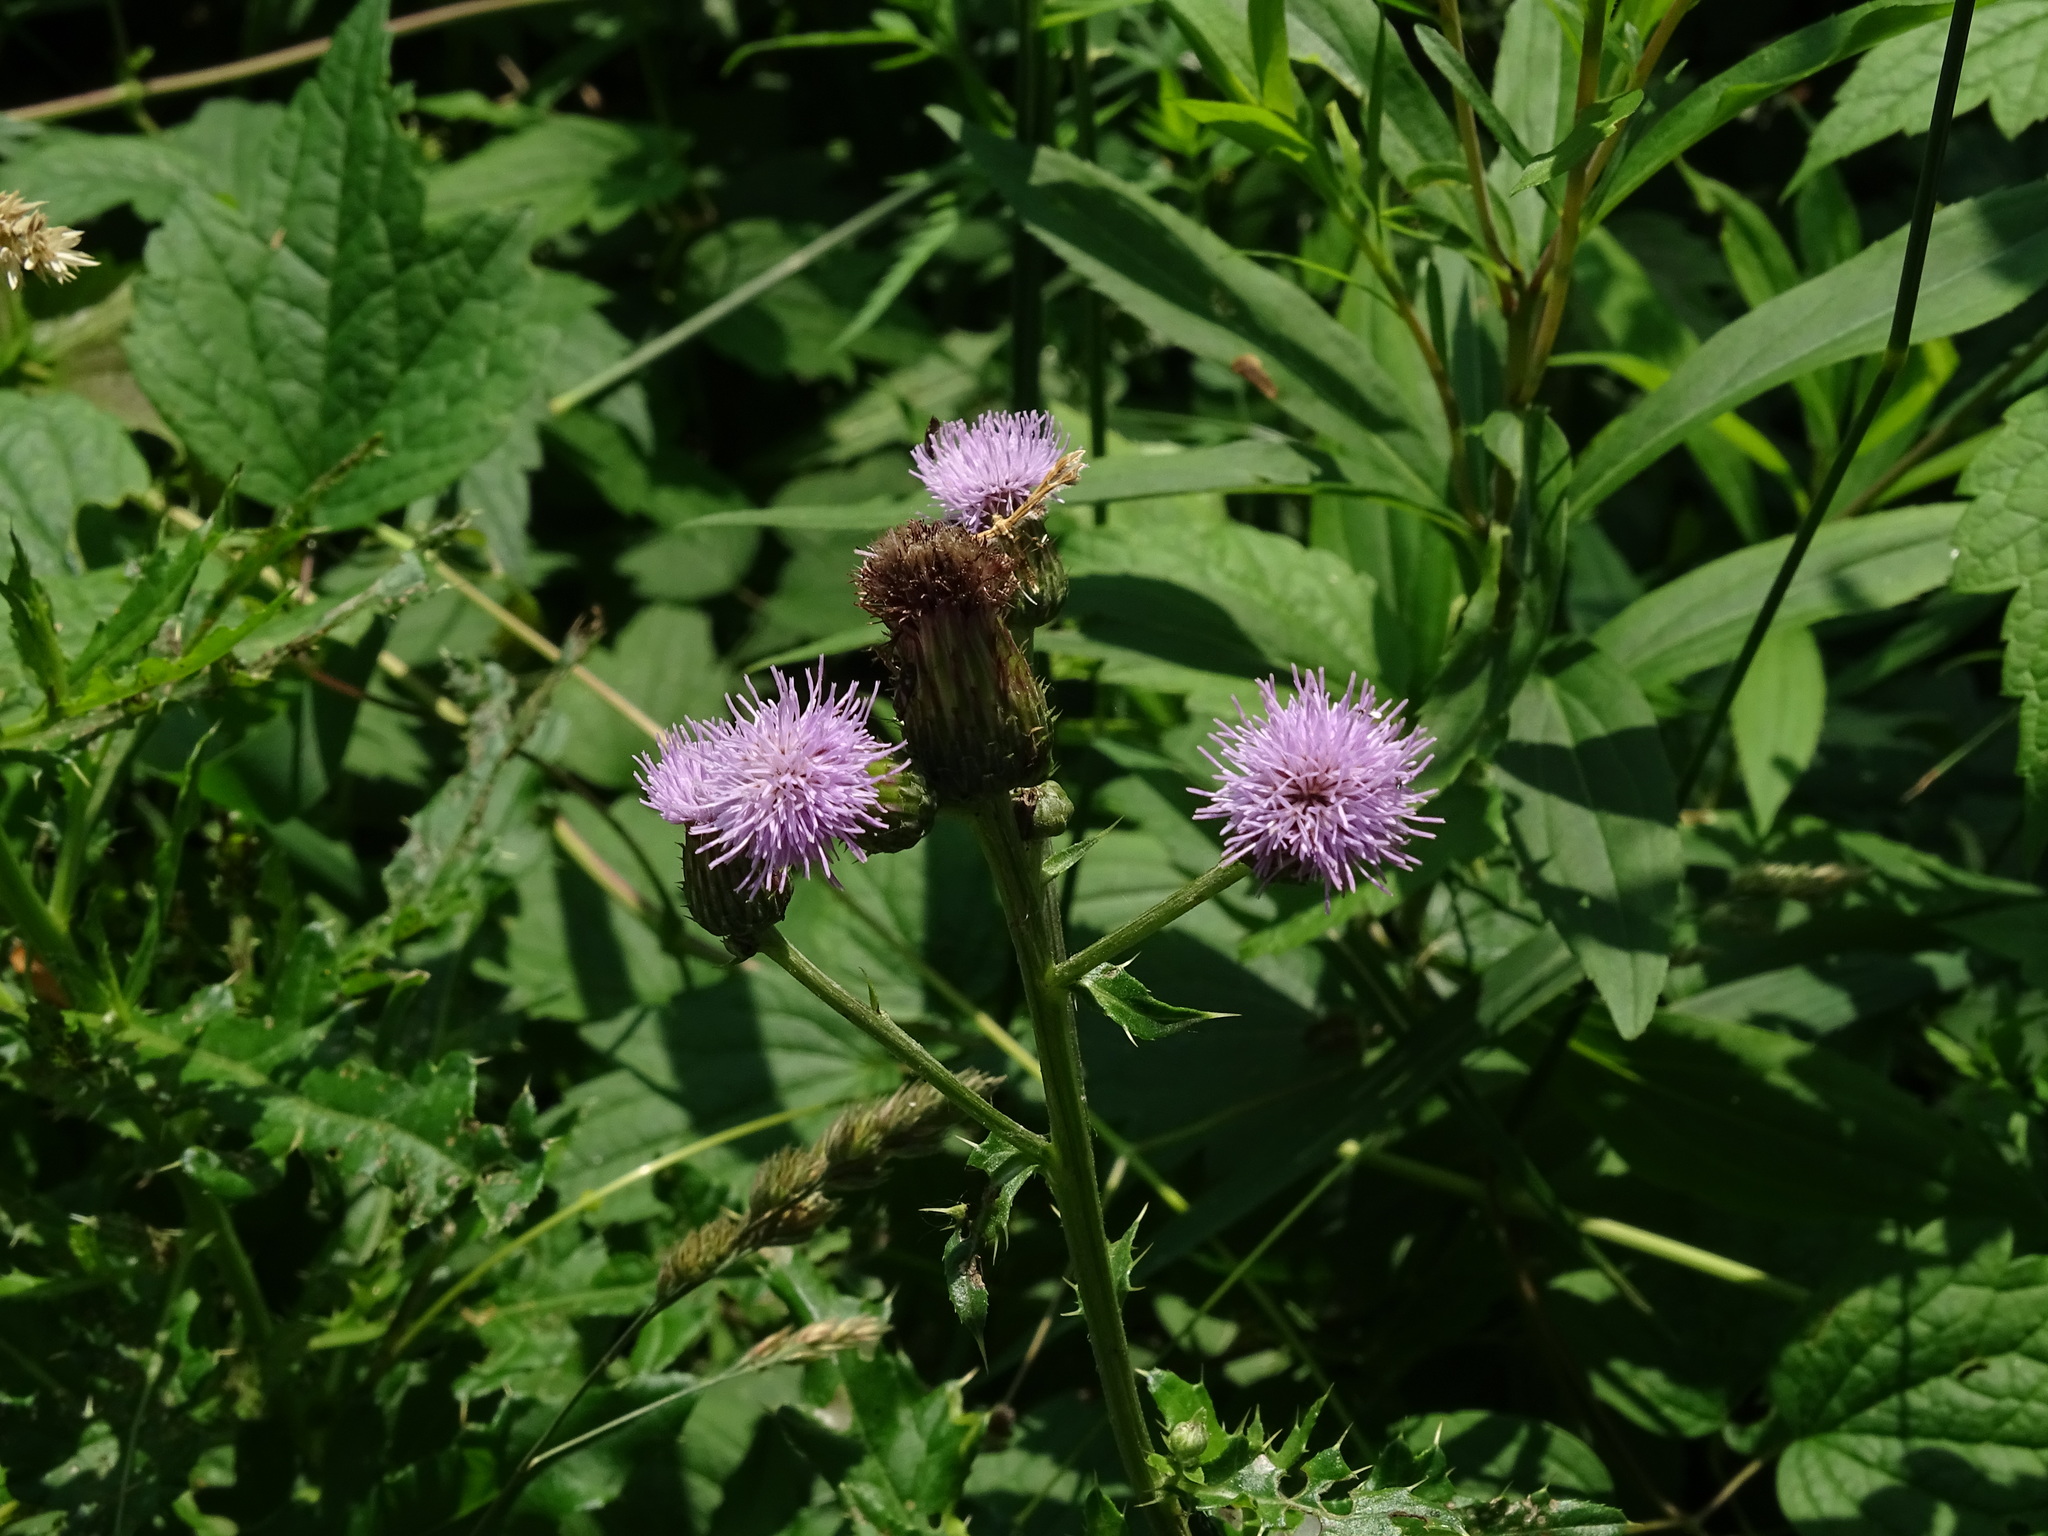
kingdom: Plantae
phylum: Tracheophyta
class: Magnoliopsida
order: Asterales
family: Asteraceae
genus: Cirsium
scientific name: Cirsium arvense
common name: Creeping thistle
